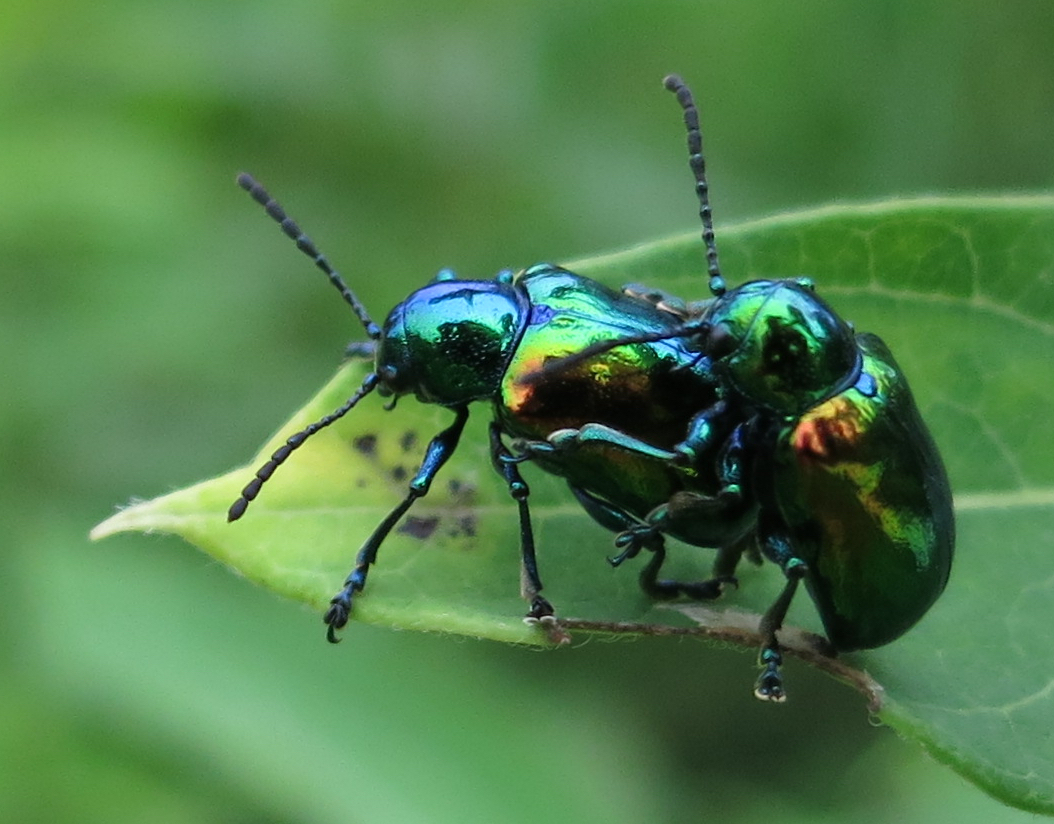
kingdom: Animalia
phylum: Arthropoda
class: Insecta
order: Coleoptera
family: Chrysomelidae
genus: Chrysochus
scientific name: Chrysochus auratus
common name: Dogbane leaf beetle
